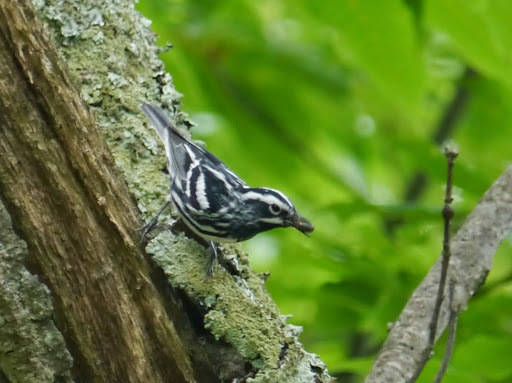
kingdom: Animalia
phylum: Chordata
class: Aves
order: Passeriformes
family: Parulidae
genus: Mniotilta
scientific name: Mniotilta varia
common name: Black-and-white warbler
